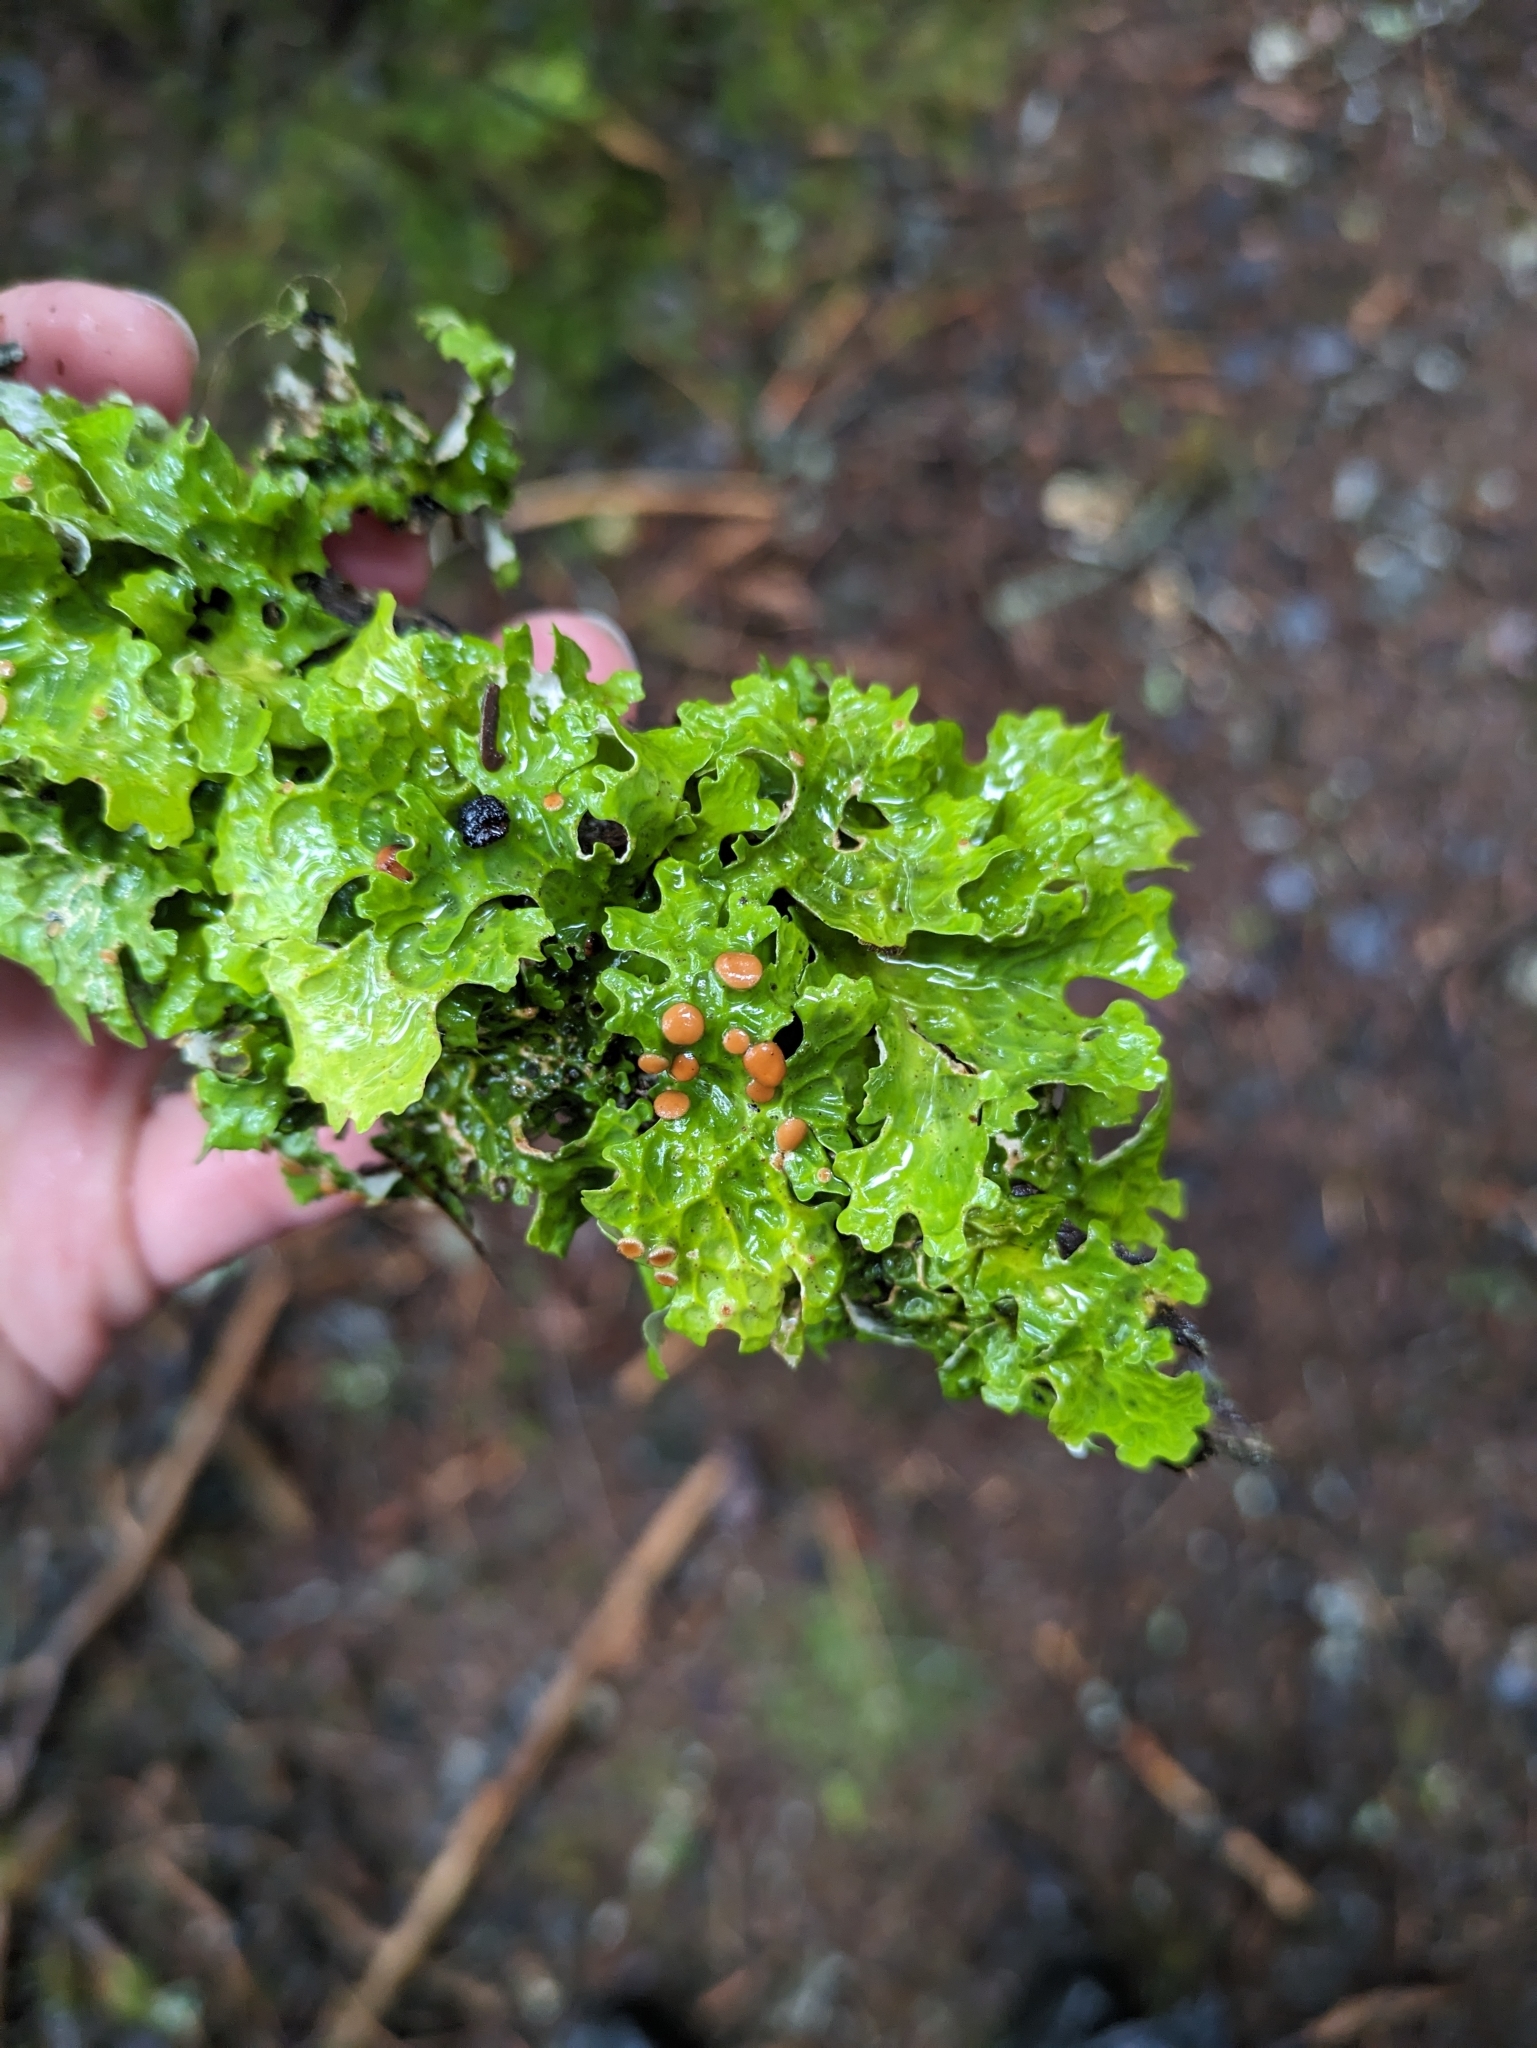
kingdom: Fungi
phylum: Ascomycota
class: Lecanoromycetes
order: Peltigerales
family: Lobariaceae
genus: Lobaria
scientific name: Lobaria linita
